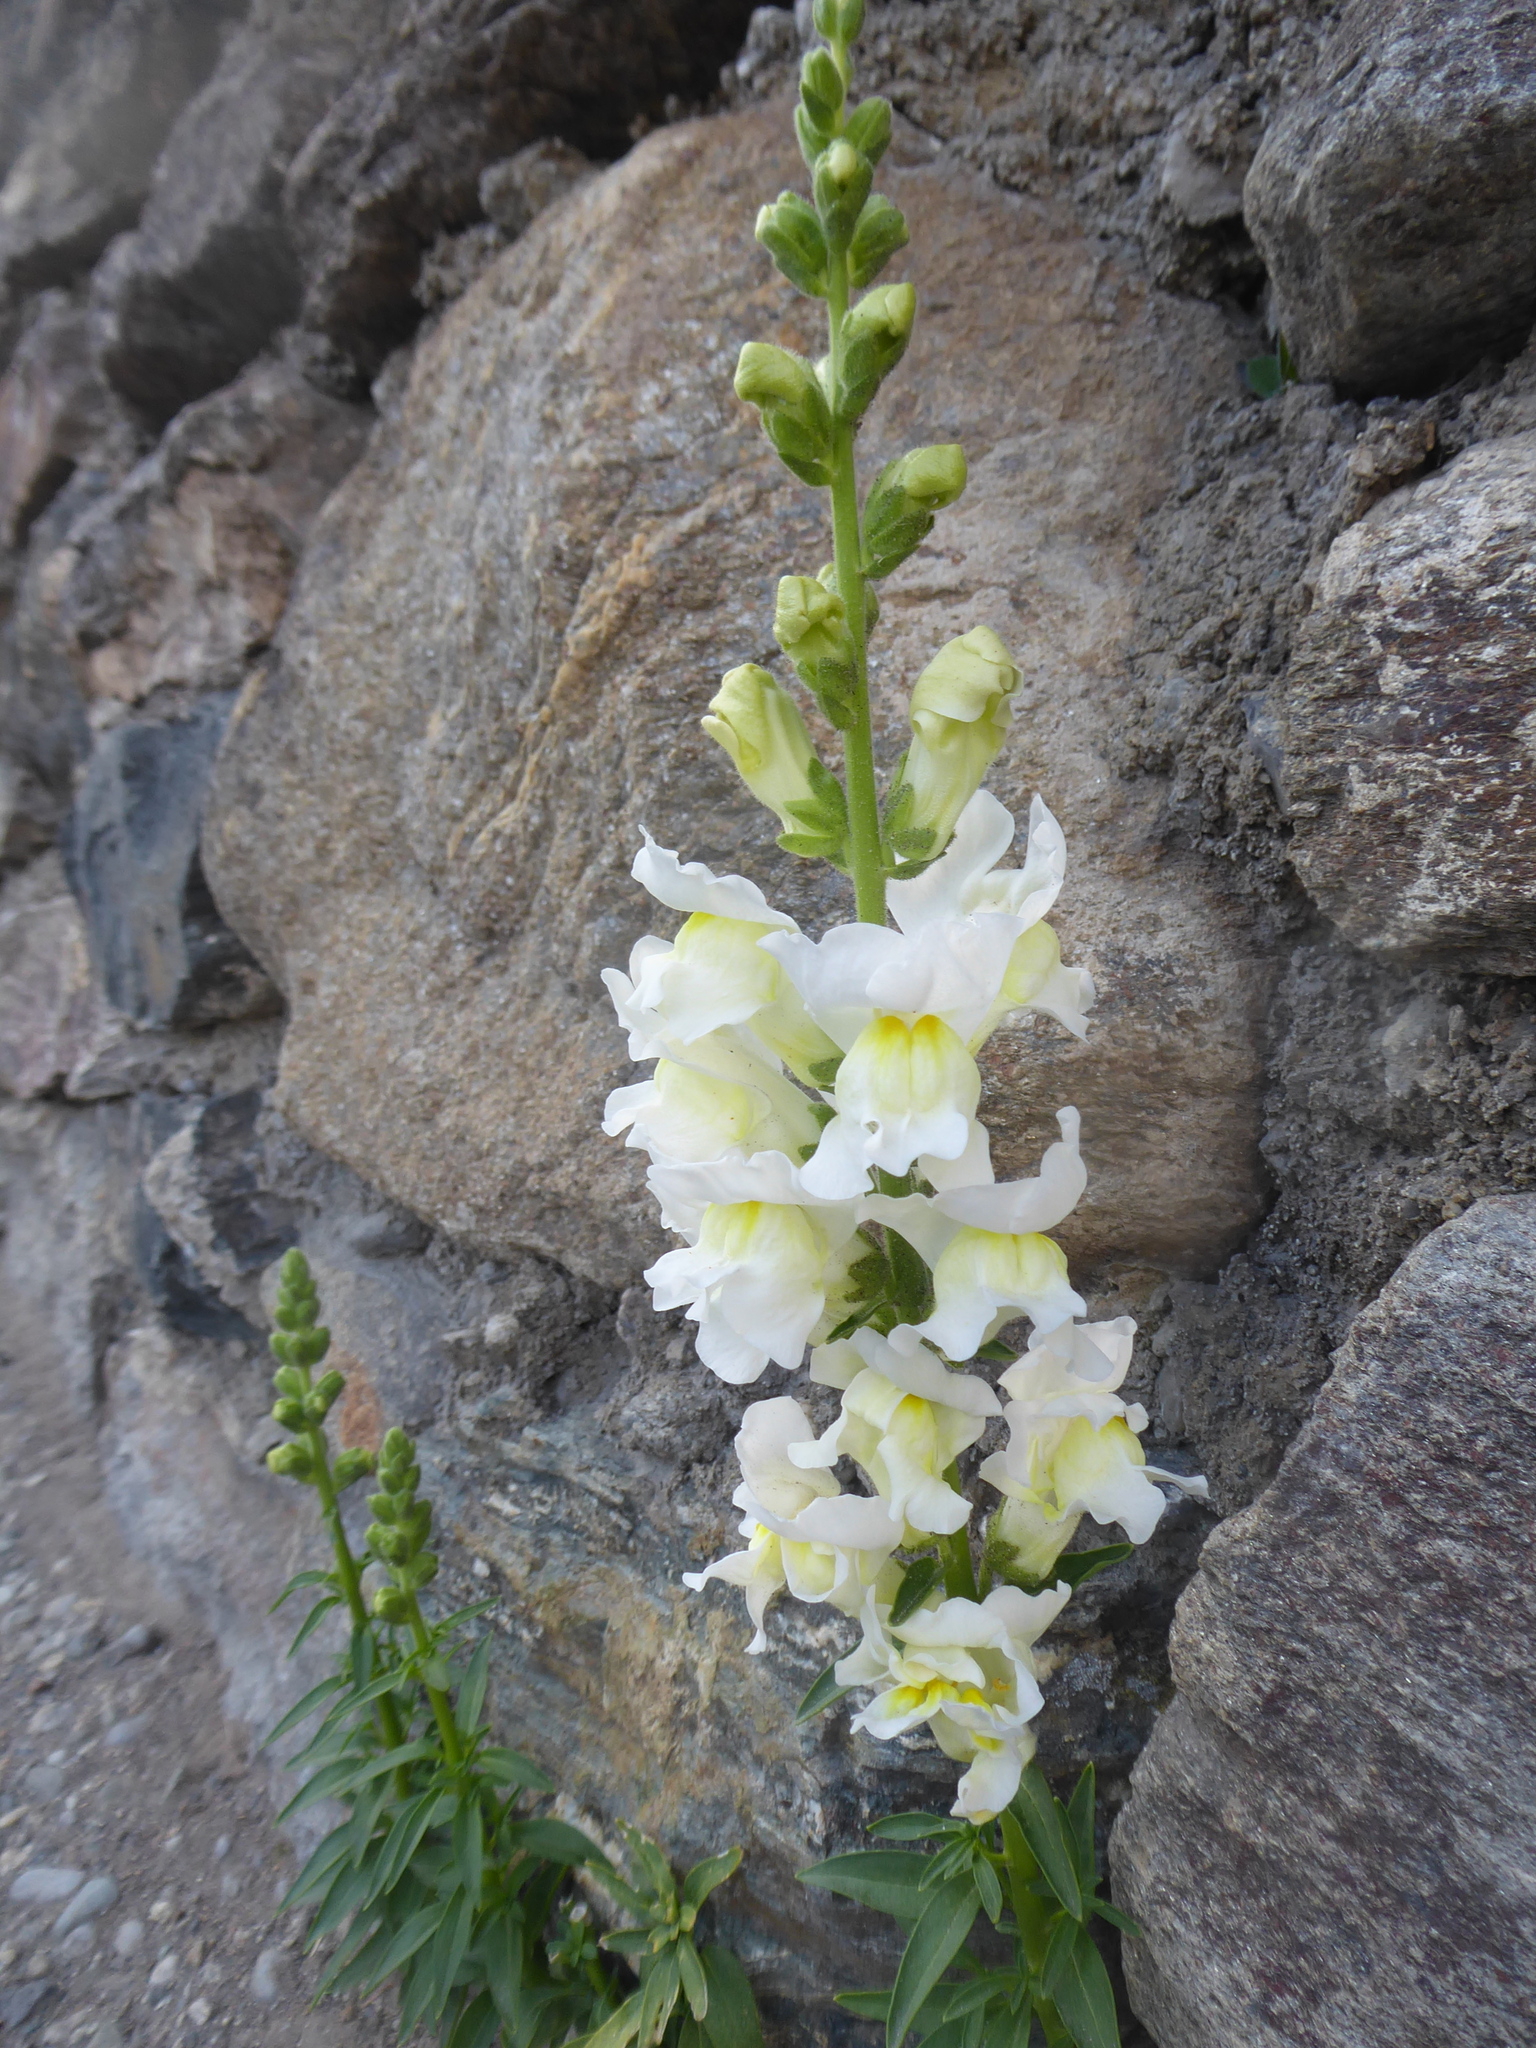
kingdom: Plantae
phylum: Tracheophyta
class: Magnoliopsida
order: Lamiales
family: Plantaginaceae
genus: Antirrhinum
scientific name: Antirrhinum majus
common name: Snapdragon
